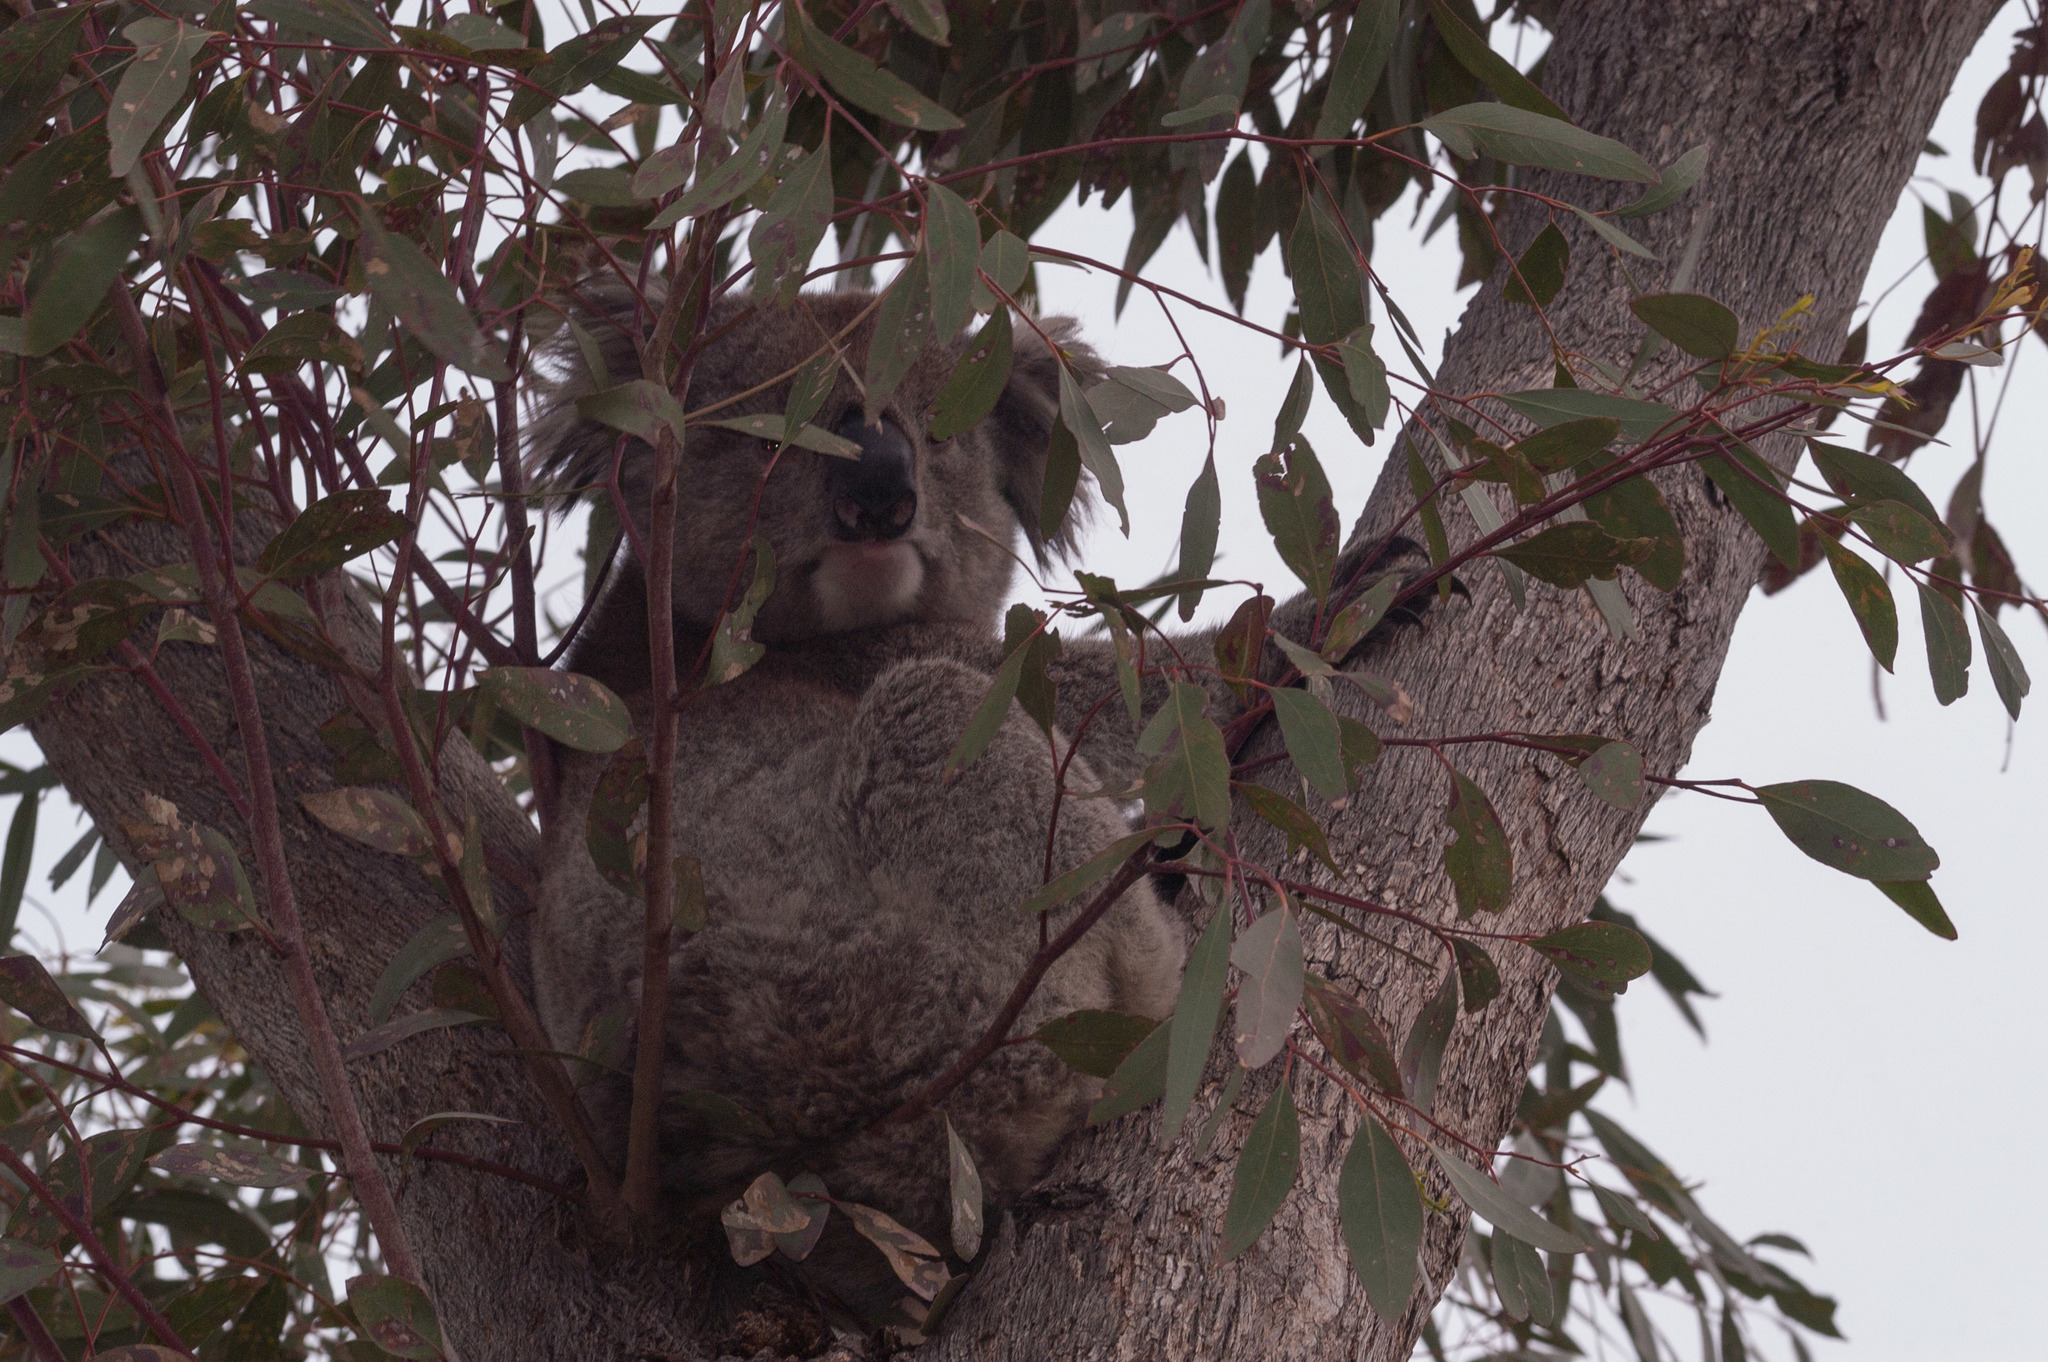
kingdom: Animalia
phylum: Chordata
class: Mammalia
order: Diprotodontia
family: Phascolarctidae
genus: Phascolarctos
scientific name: Phascolarctos cinereus
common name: Koala
